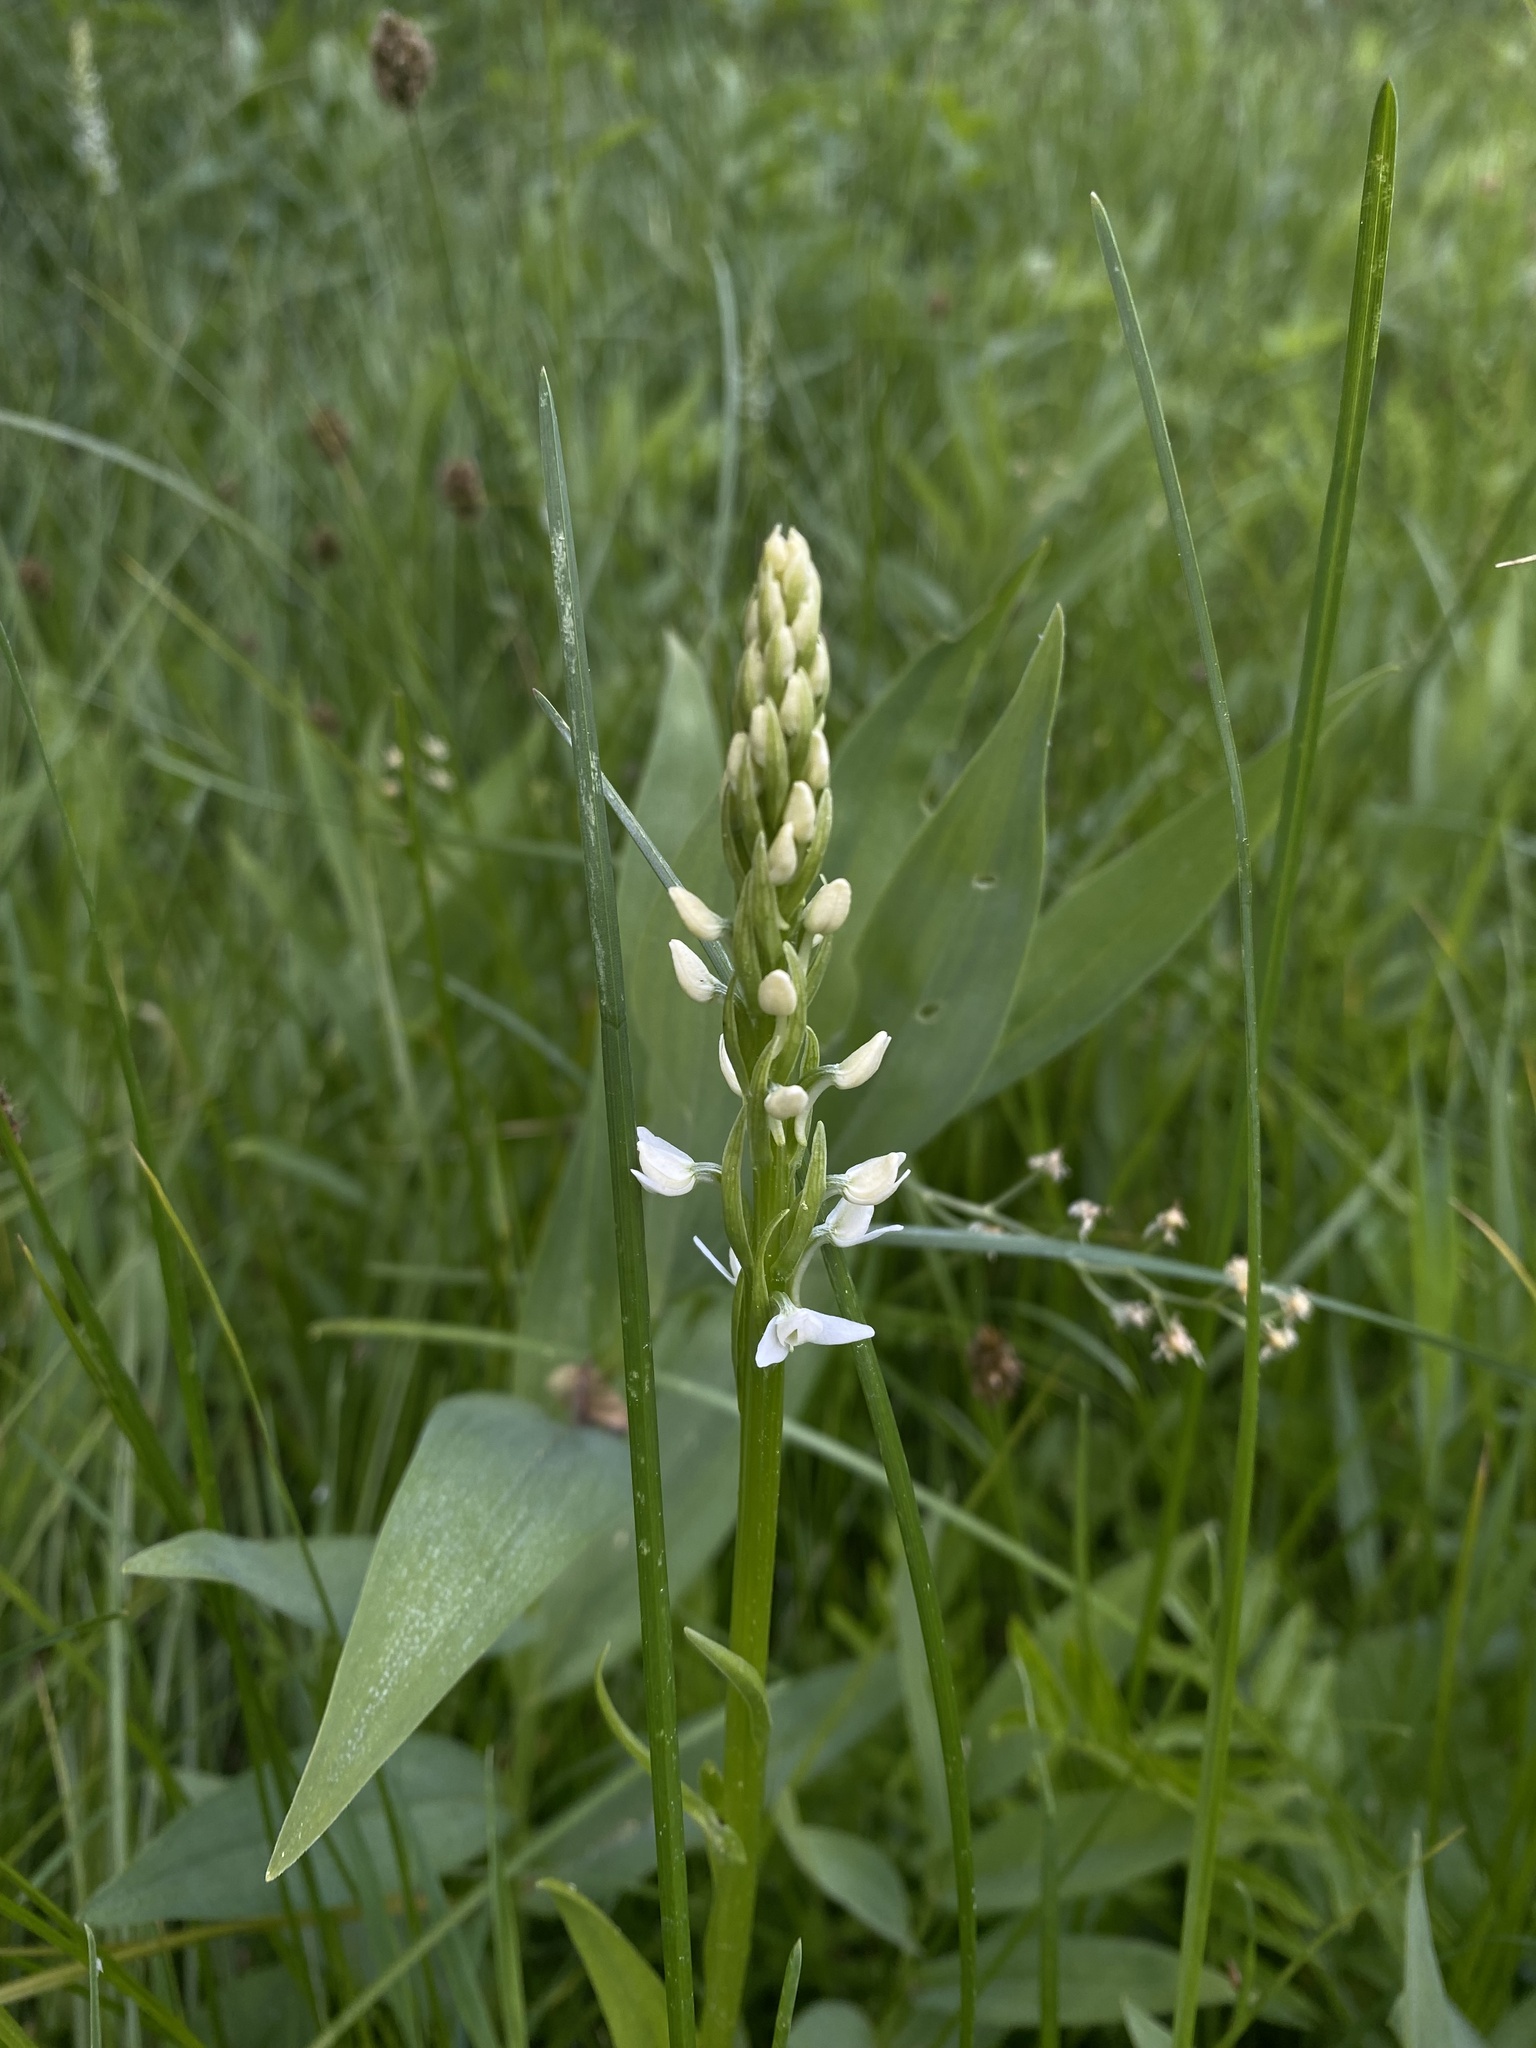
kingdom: Plantae
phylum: Tracheophyta
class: Liliopsida
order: Asparagales
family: Orchidaceae
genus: Platanthera
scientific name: Platanthera dilatata
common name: Bog candles
